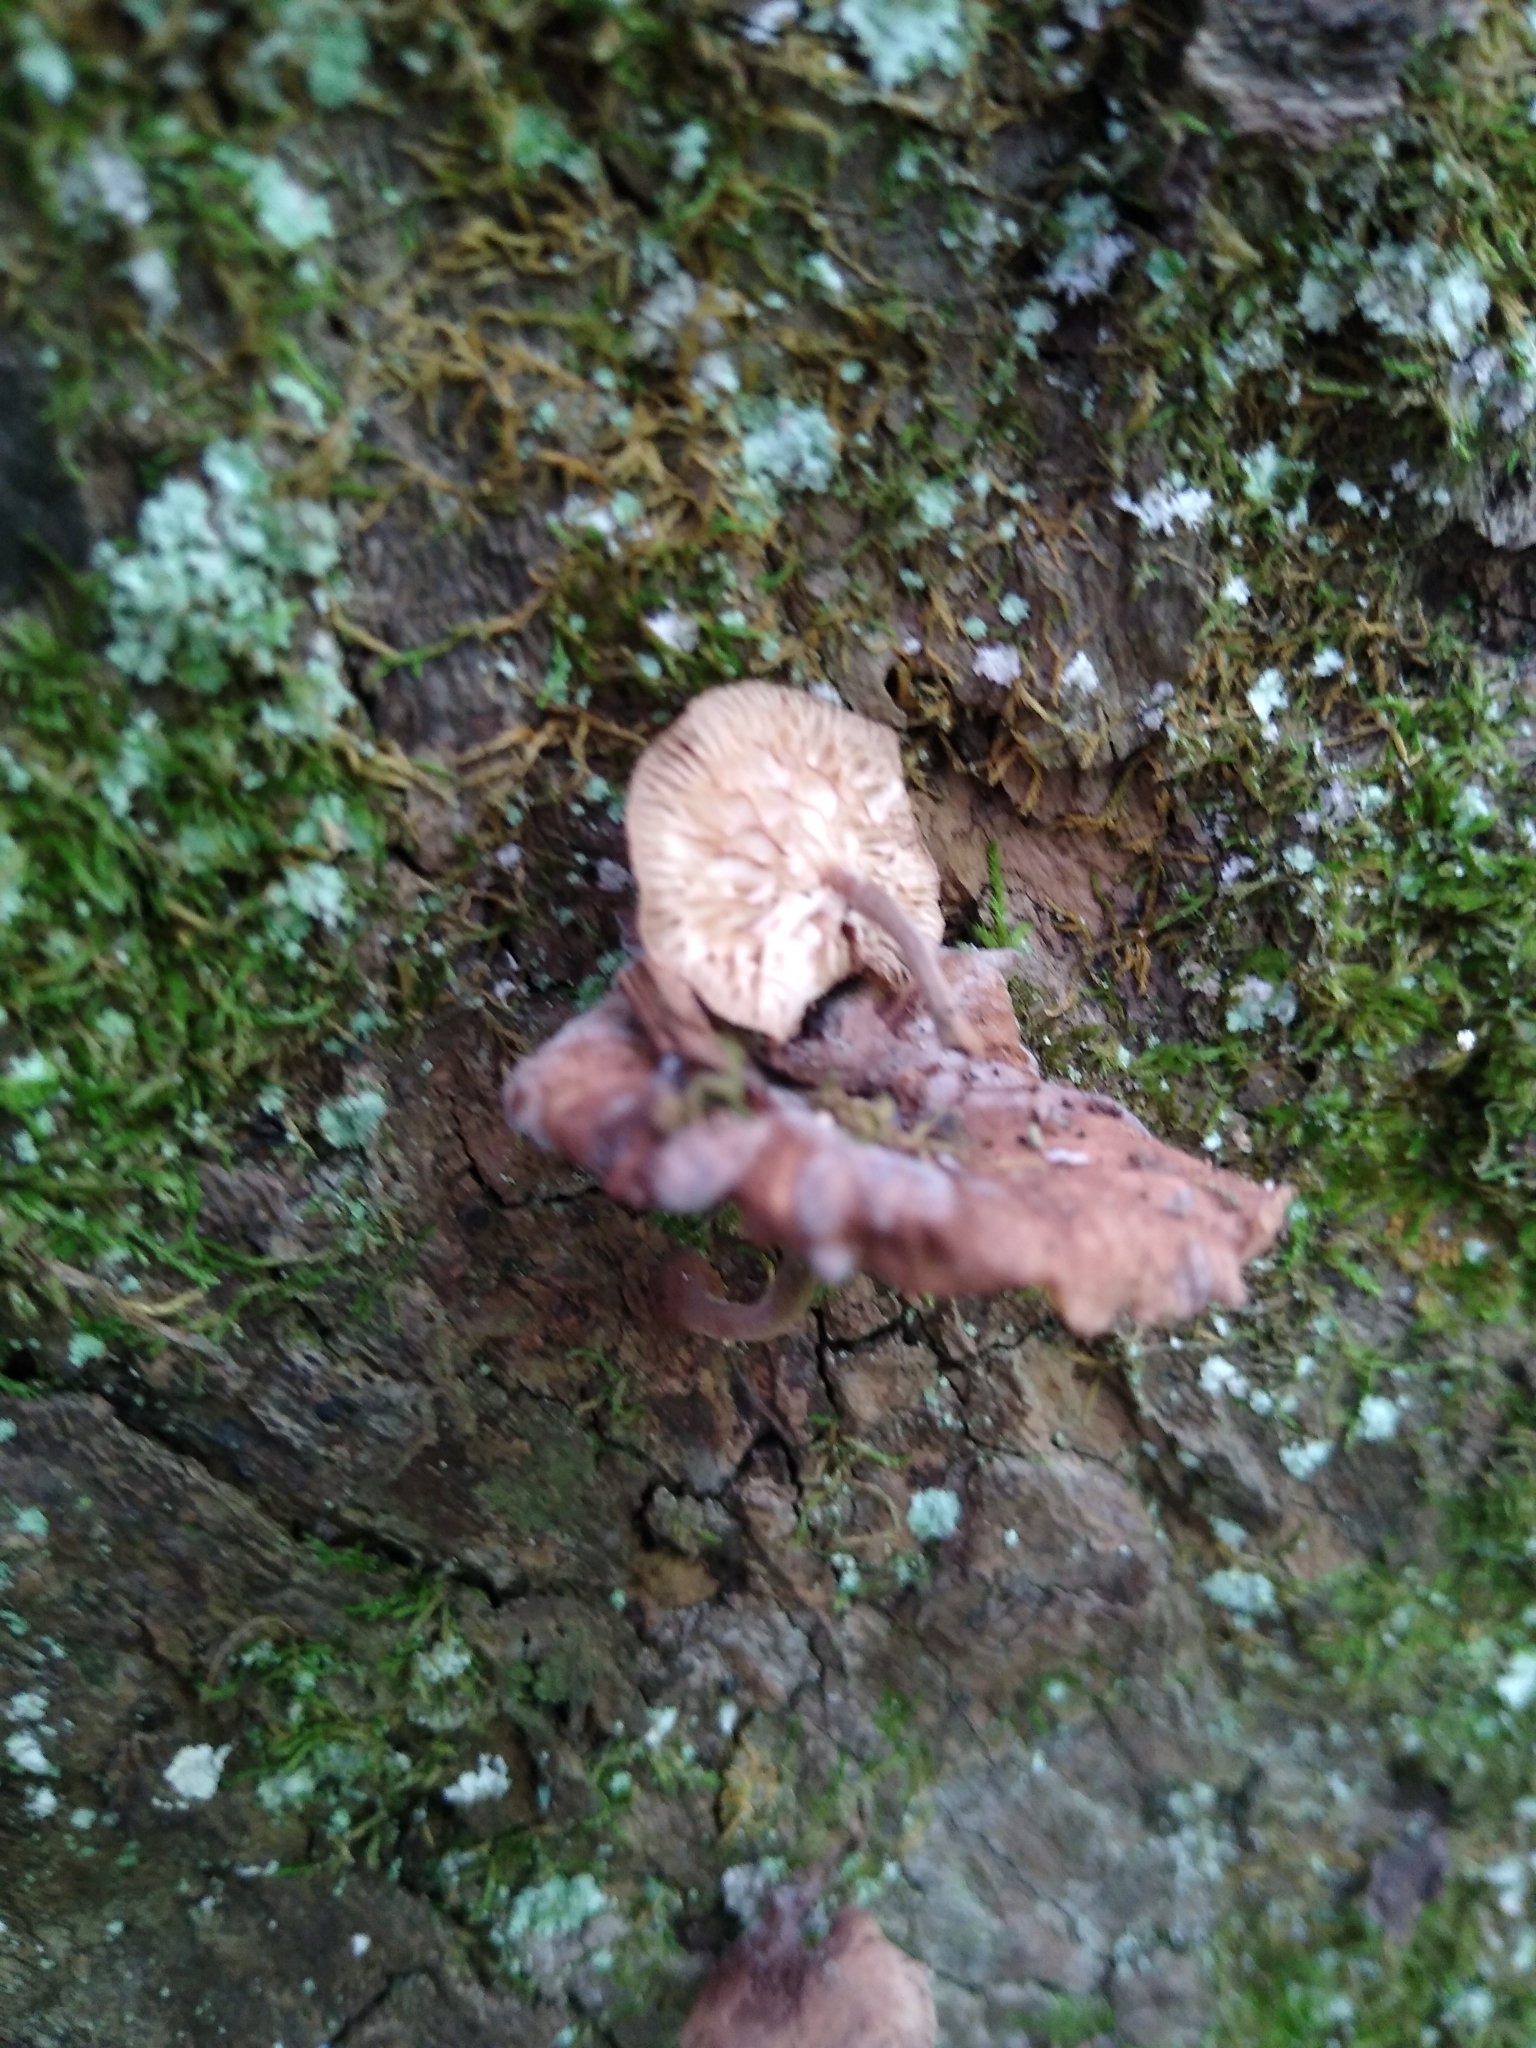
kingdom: Fungi
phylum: Basidiomycota
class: Agaricomycetes
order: Agaricales
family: Omphalotaceae
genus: Gymnopus
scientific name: Gymnopus barbipes
